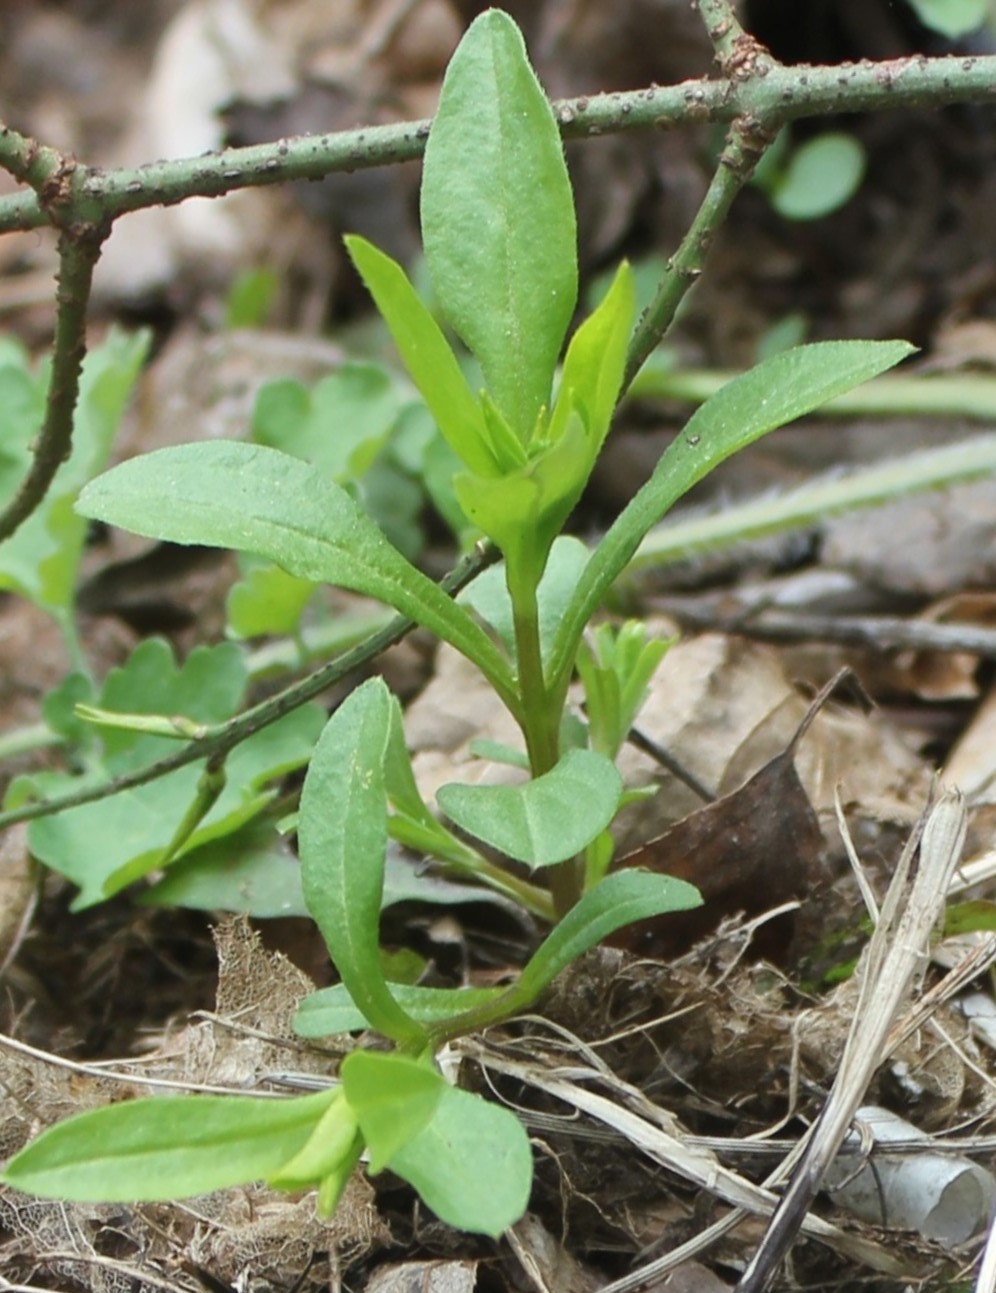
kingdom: Plantae
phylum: Tracheophyta
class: Magnoliopsida
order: Boraginales
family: Boraginaceae
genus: Memoremea
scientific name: Memoremea scorpioides
